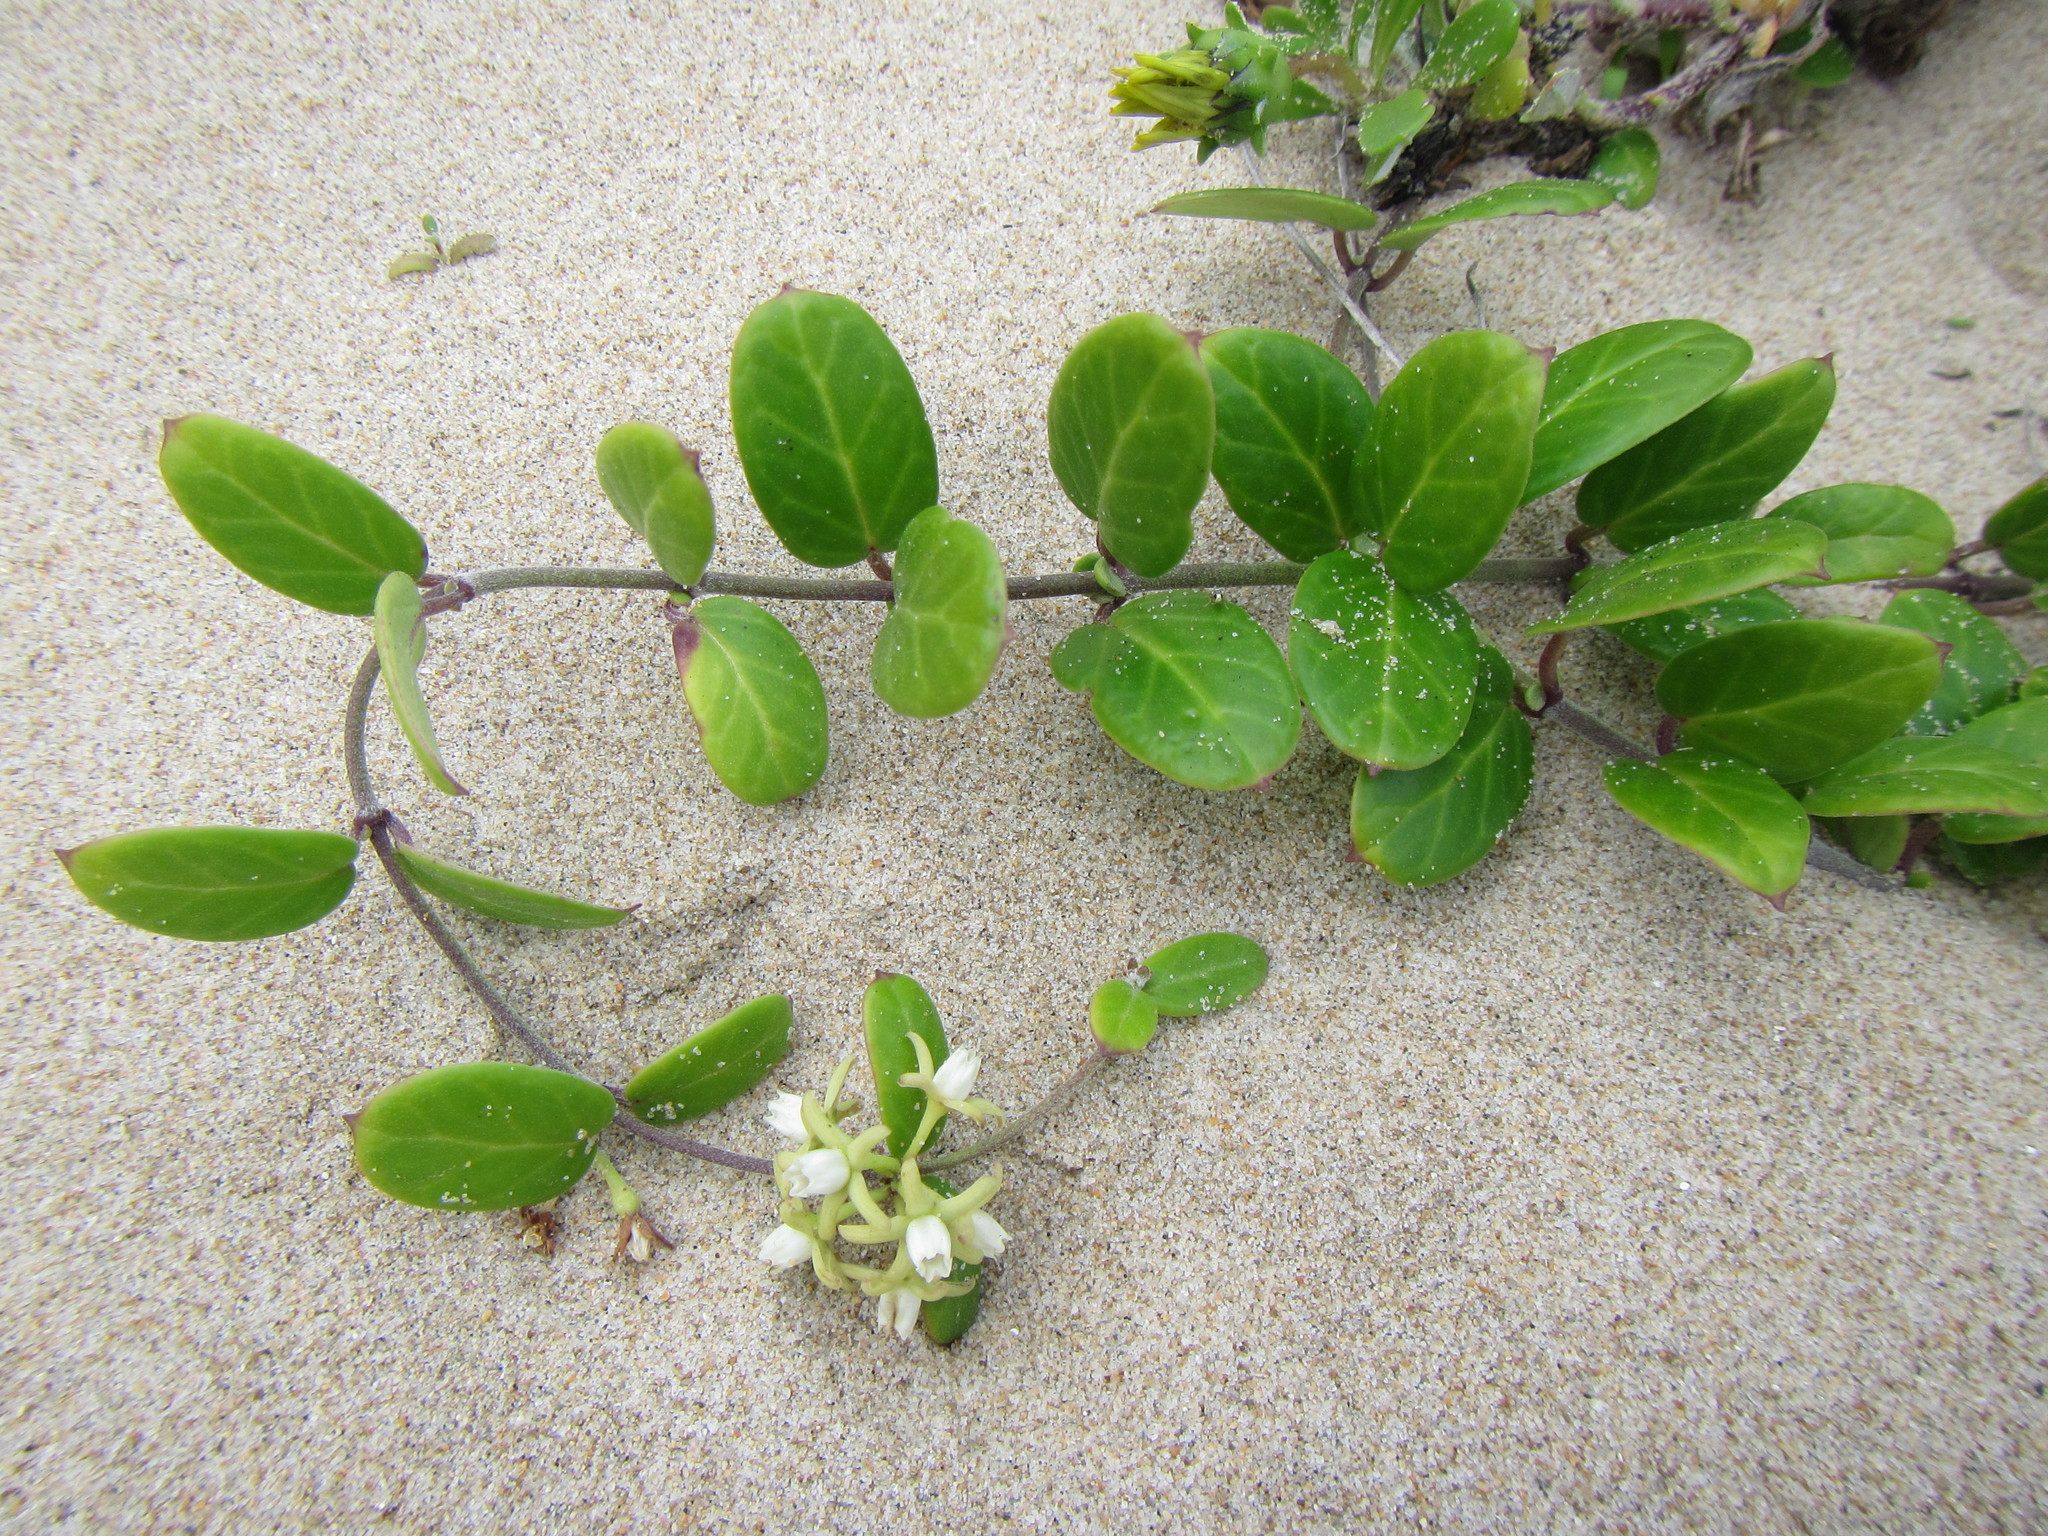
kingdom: Plantae
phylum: Tracheophyta
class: Magnoliopsida
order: Gentianales
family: Apocynaceae
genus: Cynanchum
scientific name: Cynanchum natalitium
